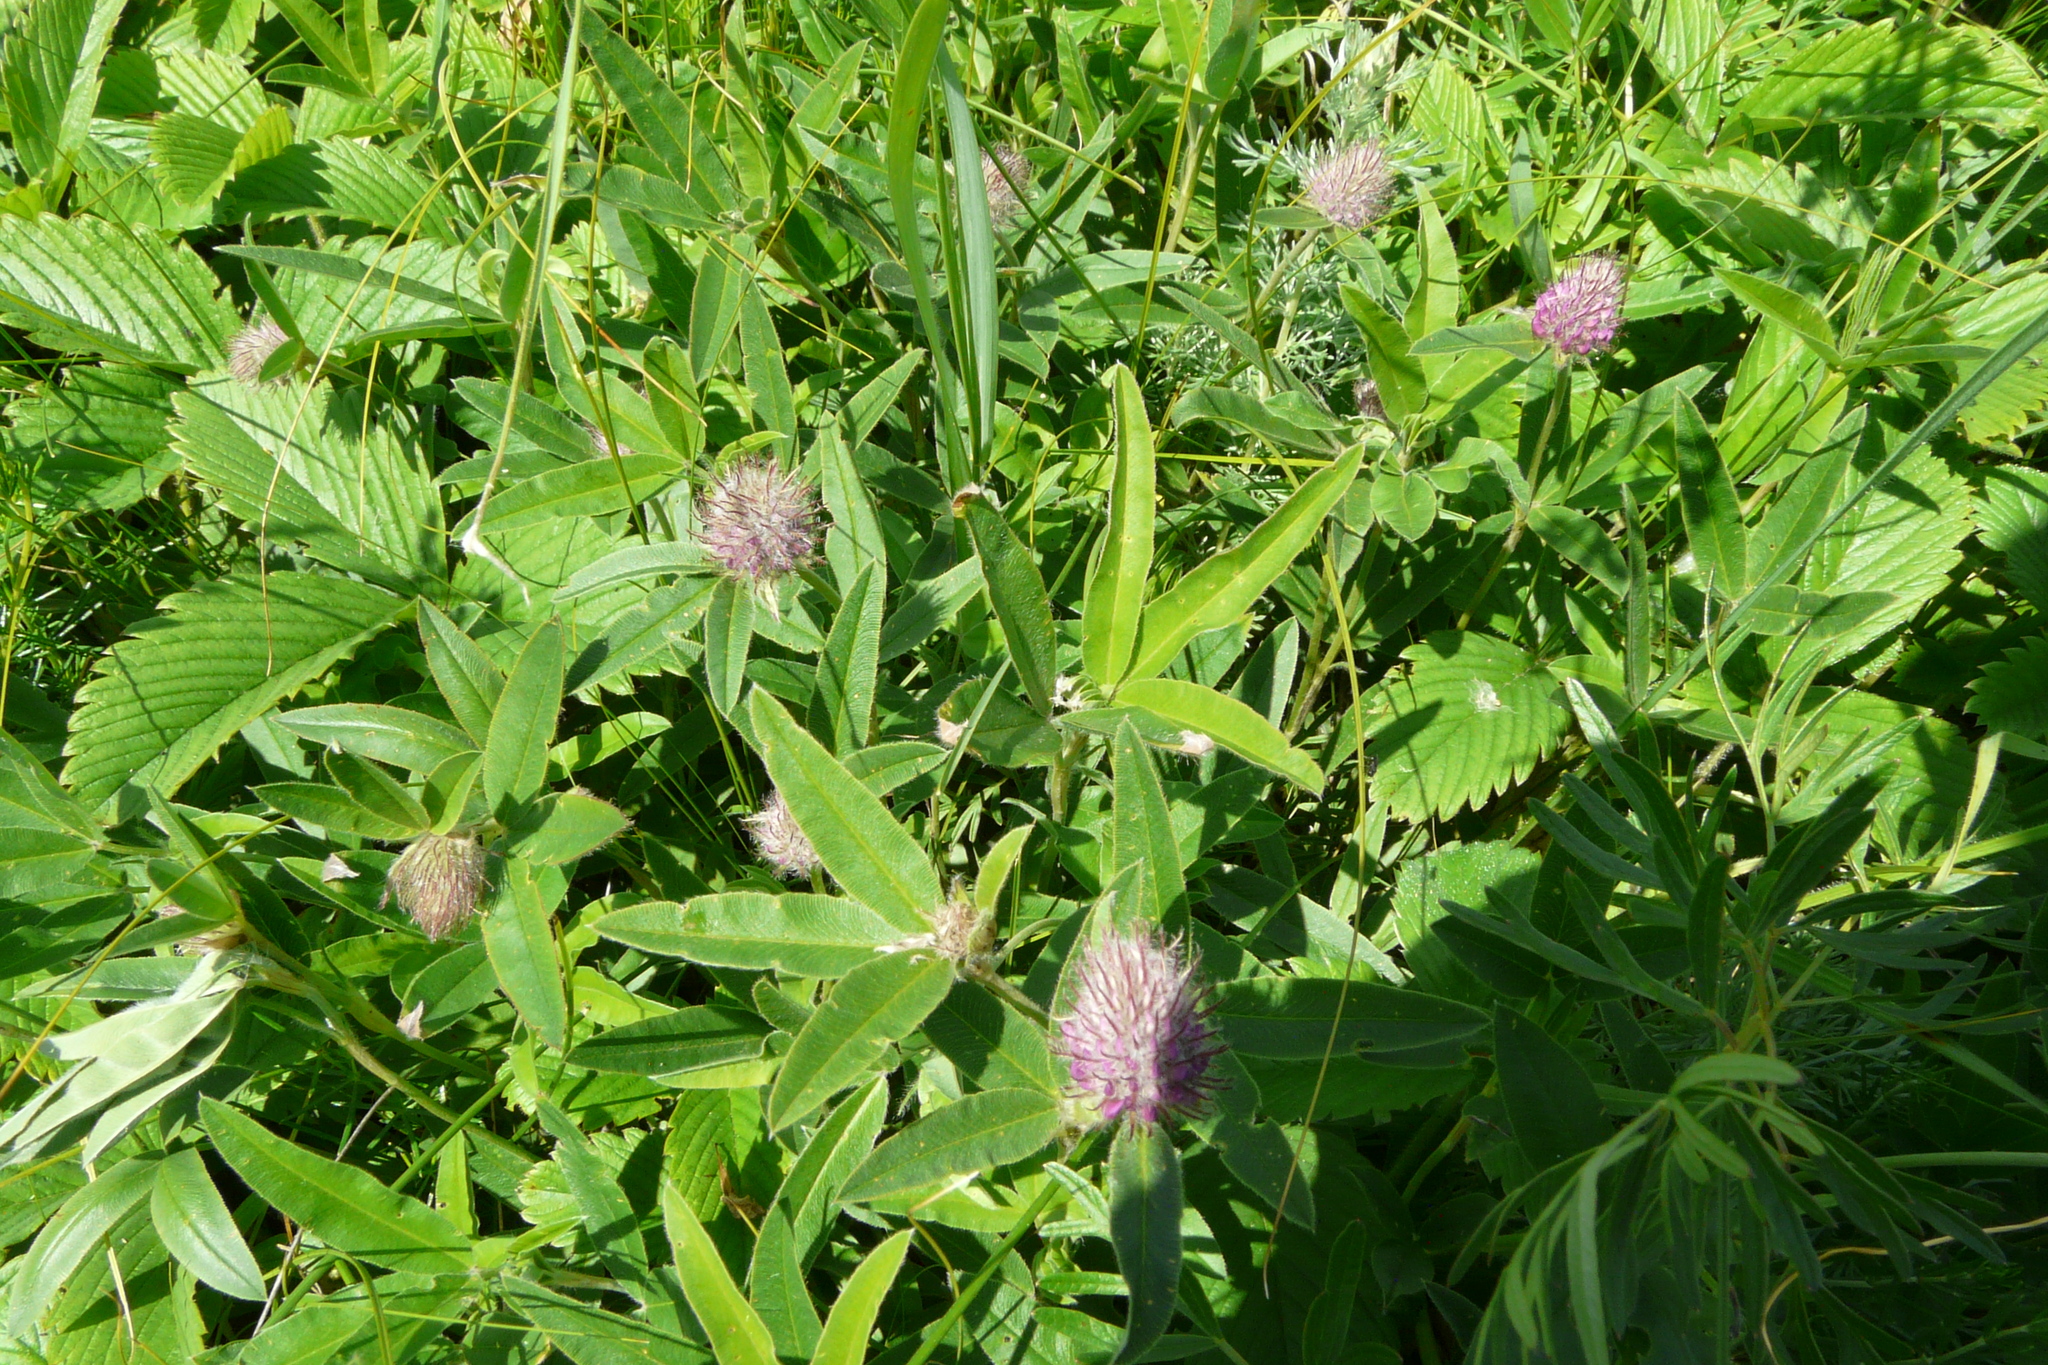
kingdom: Plantae
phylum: Tracheophyta
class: Magnoliopsida
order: Fabales
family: Fabaceae
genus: Trifolium
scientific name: Trifolium alpestre
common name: Owl-head clover
